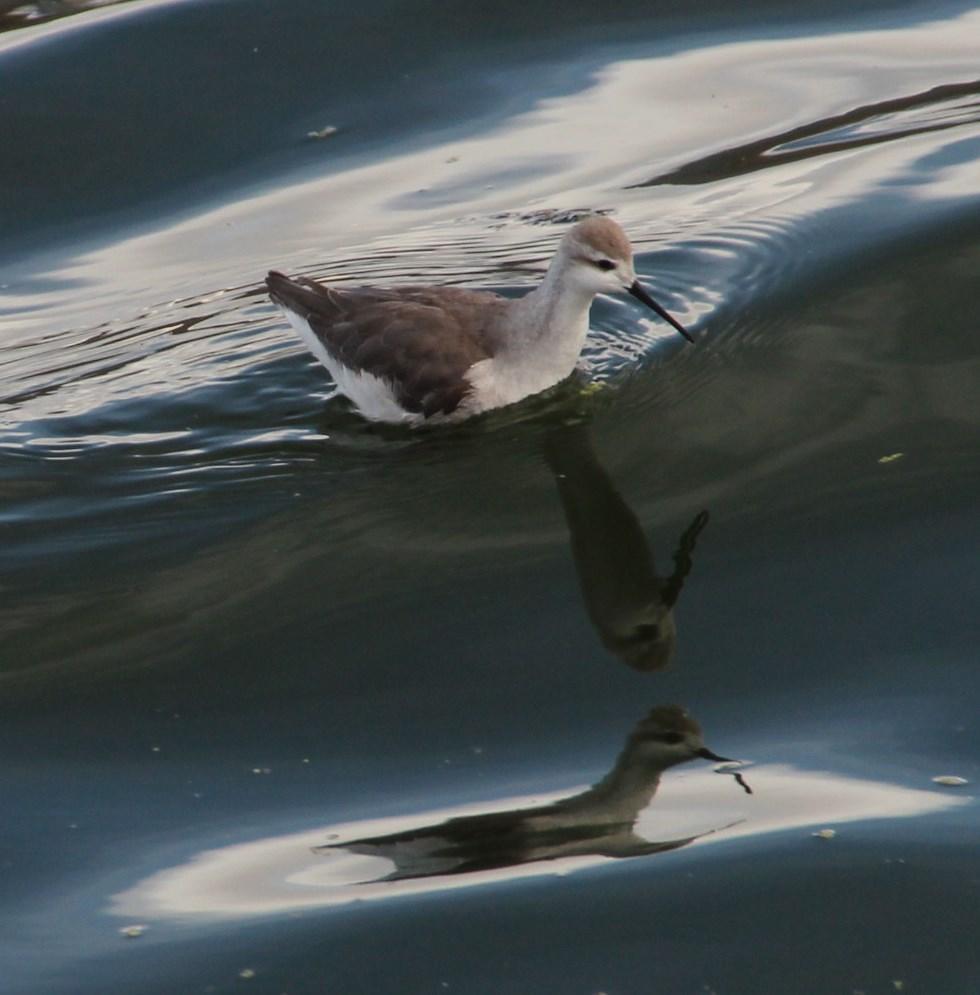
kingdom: Animalia
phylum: Chordata
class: Aves
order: Charadriiformes
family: Scolopacidae
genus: Phalaropus
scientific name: Phalaropus tricolor
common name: Wilson's phalarope
